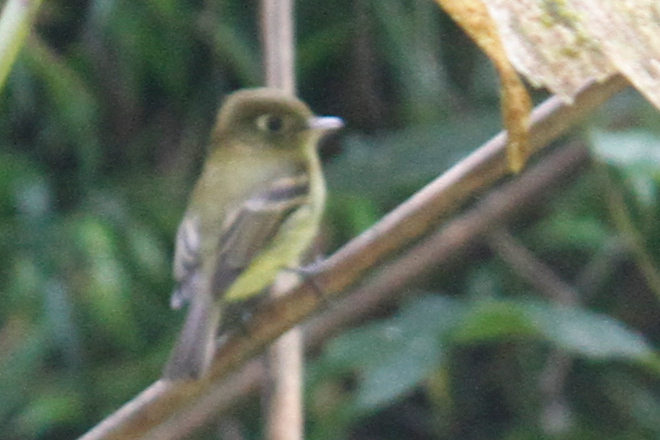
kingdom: Animalia
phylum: Chordata
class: Aves
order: Passeriformes
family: Tyrannidae
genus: Empidonax
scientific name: Empidonax flavescens
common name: Yellowish flycatcher
